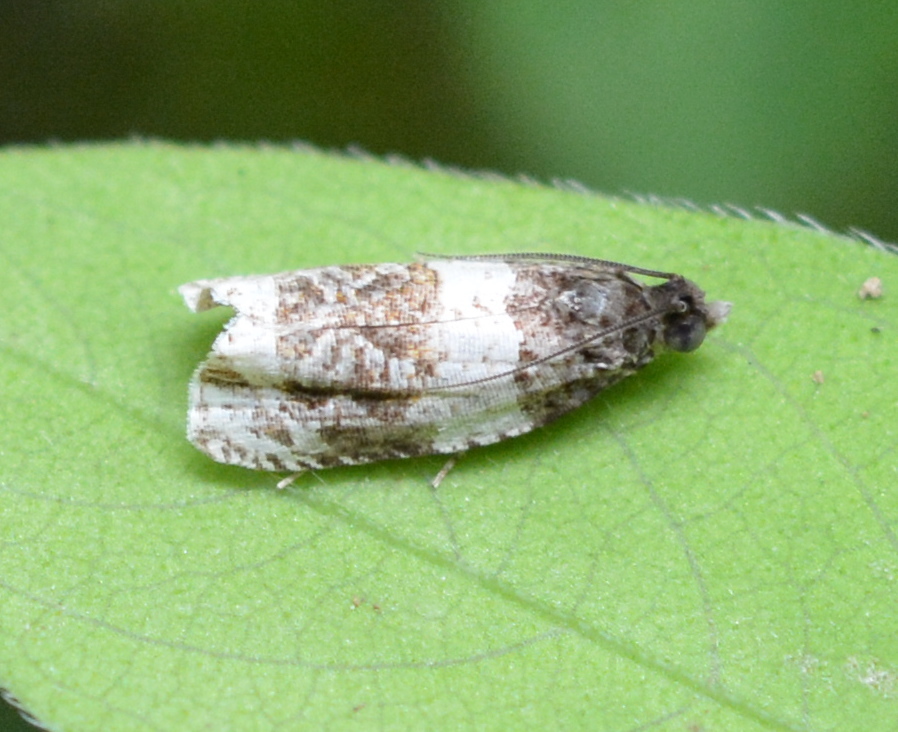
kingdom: Animalia
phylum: Arthropoda
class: Insecta
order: Lepidoptera
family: Tortricidae
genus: Olethreutes
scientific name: Olethreutes fasciatana
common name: Banded olethreutes moth
